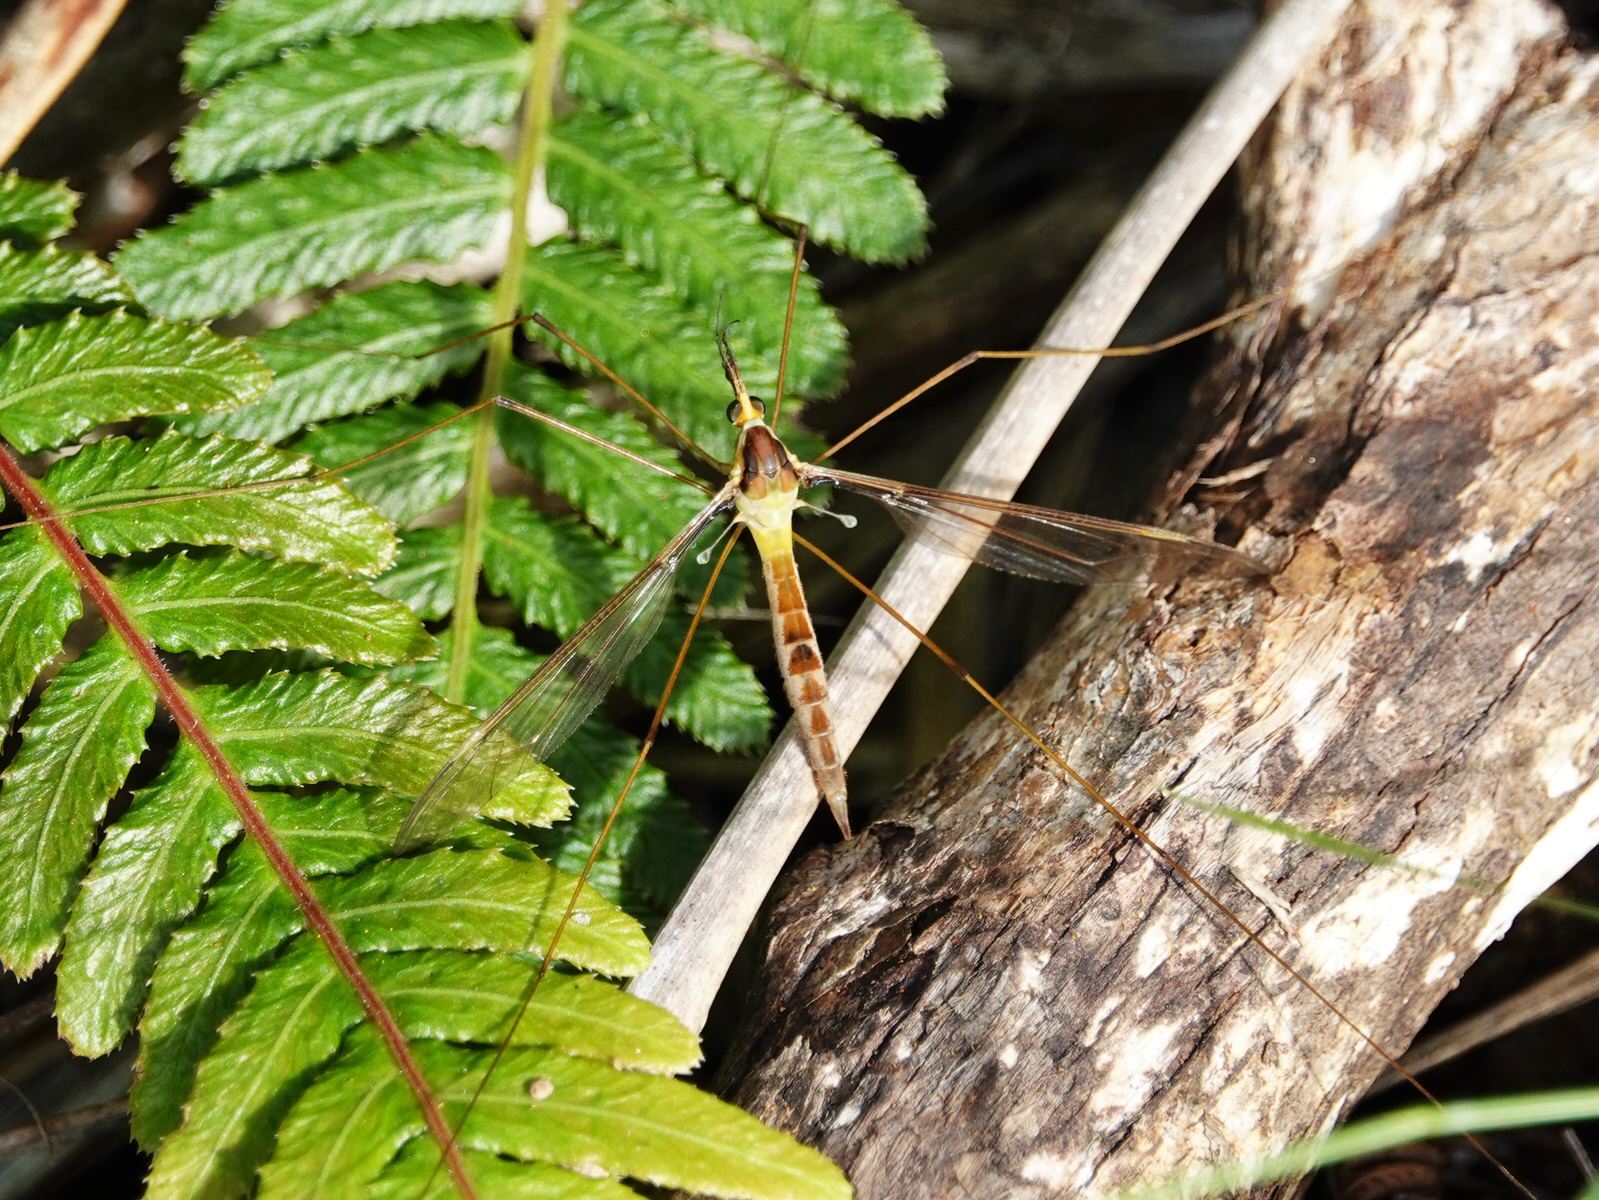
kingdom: Animalia
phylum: Arthropoda
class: Insecta
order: Diptera
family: Tipulidae
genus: Leptotarsus
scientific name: Leptotarsus albistigma
